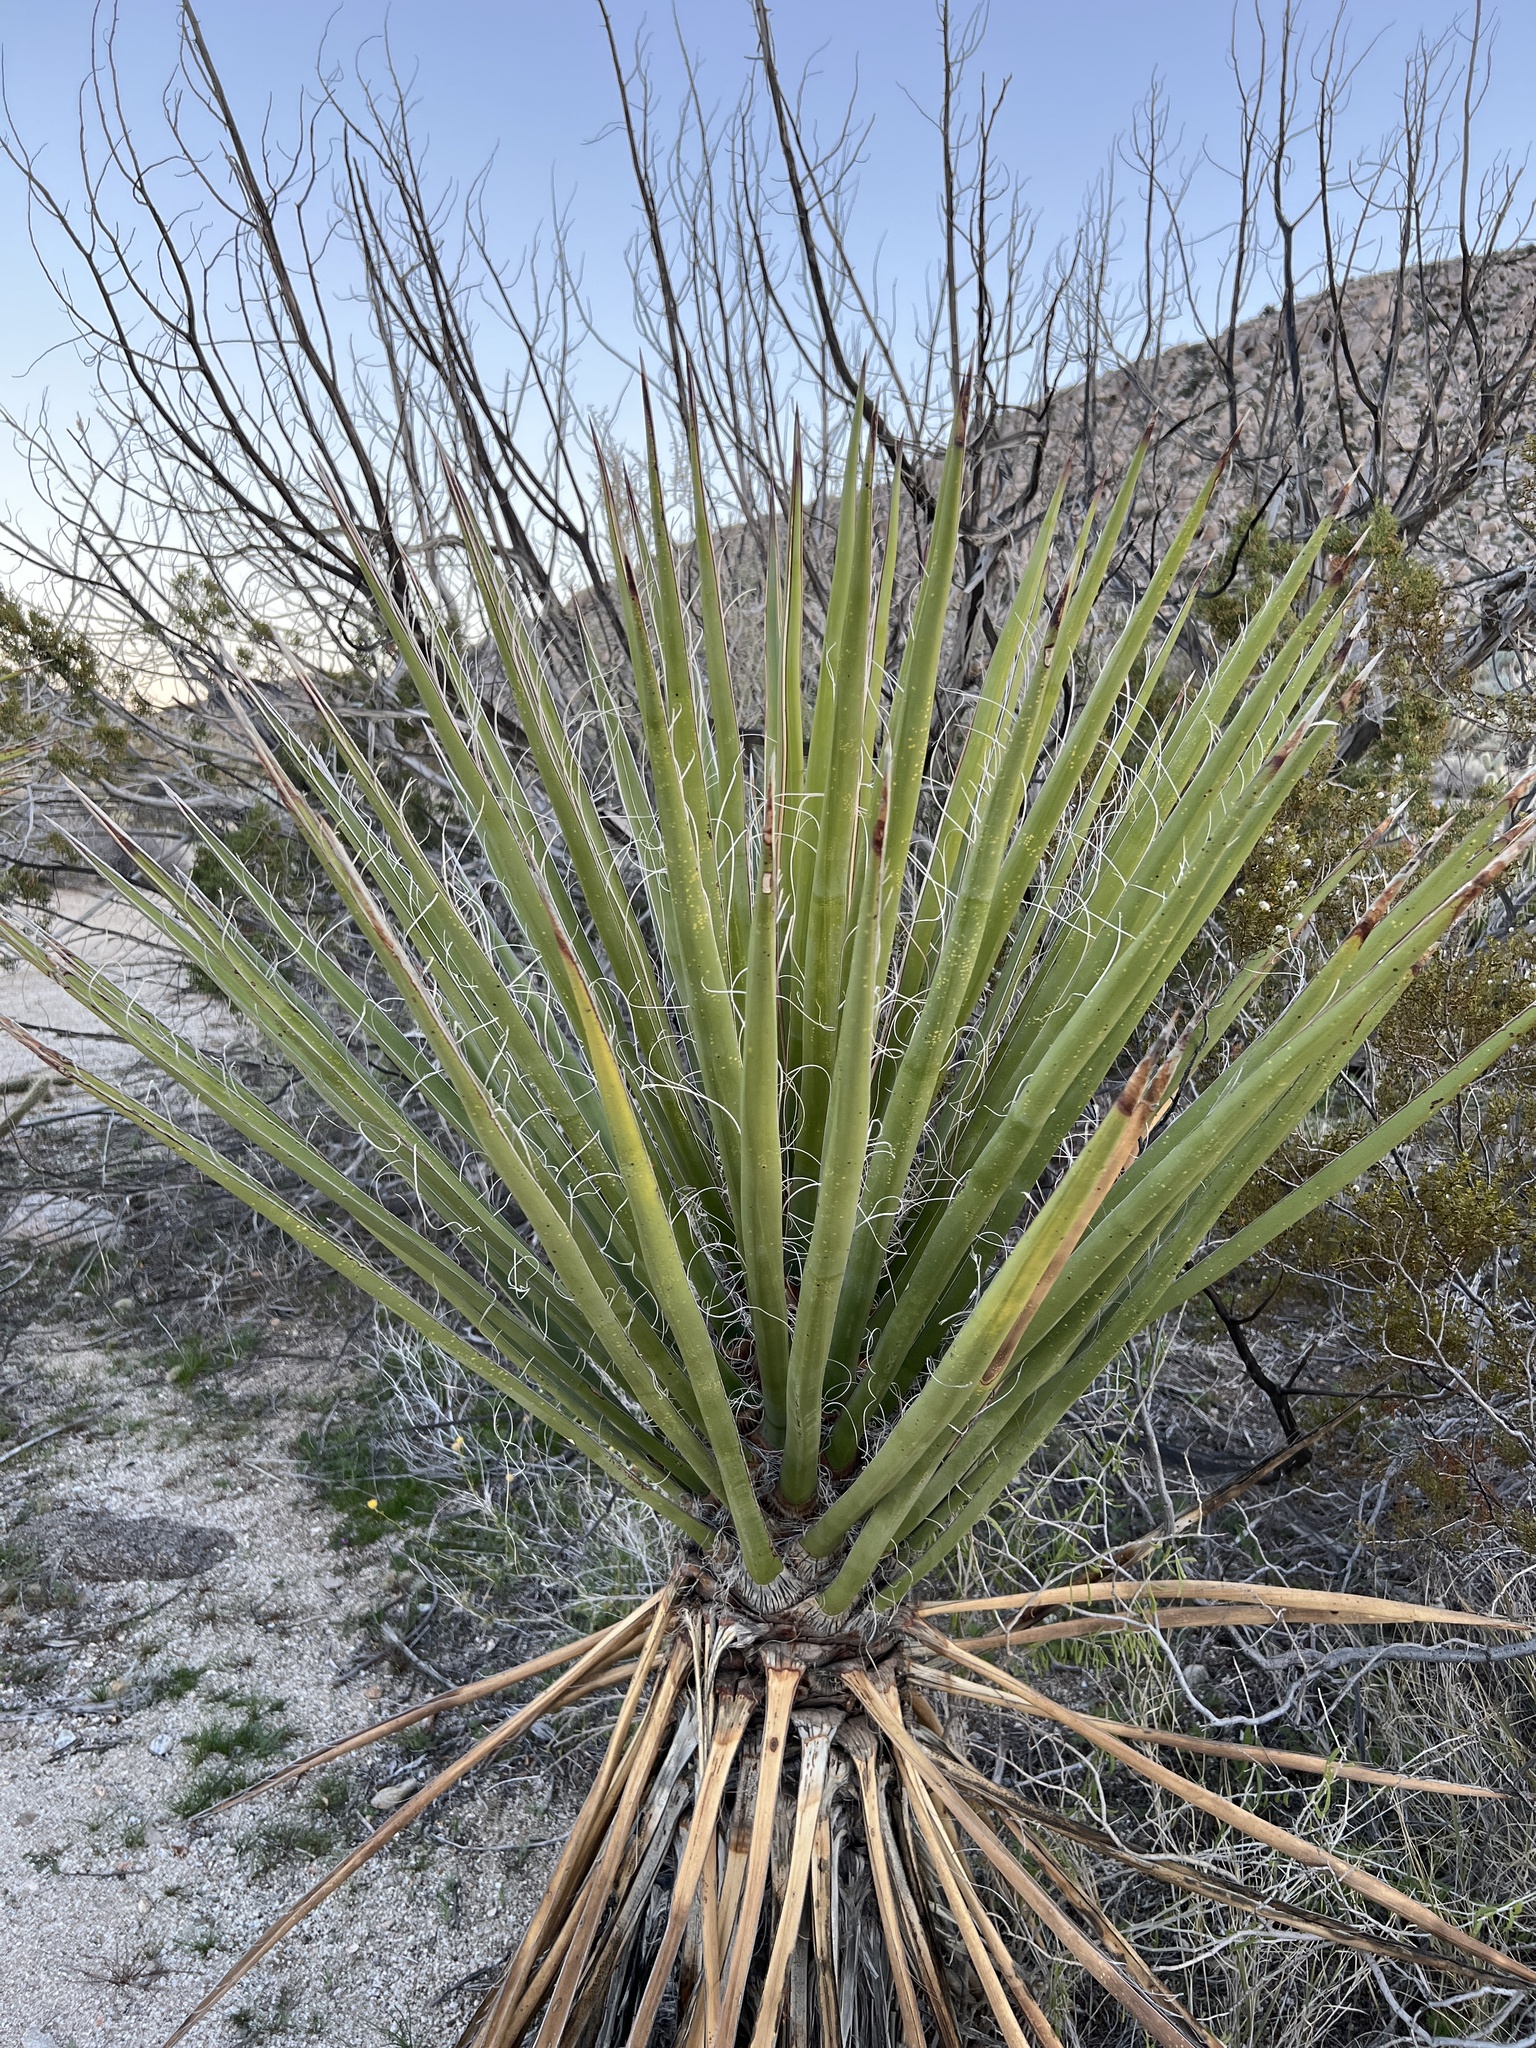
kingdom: Plantae
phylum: Tracheophyta
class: Liliopsida
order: Asparagales
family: Asparagaceae
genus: Yucca
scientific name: Yucca schidigera
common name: Mojave yucca
